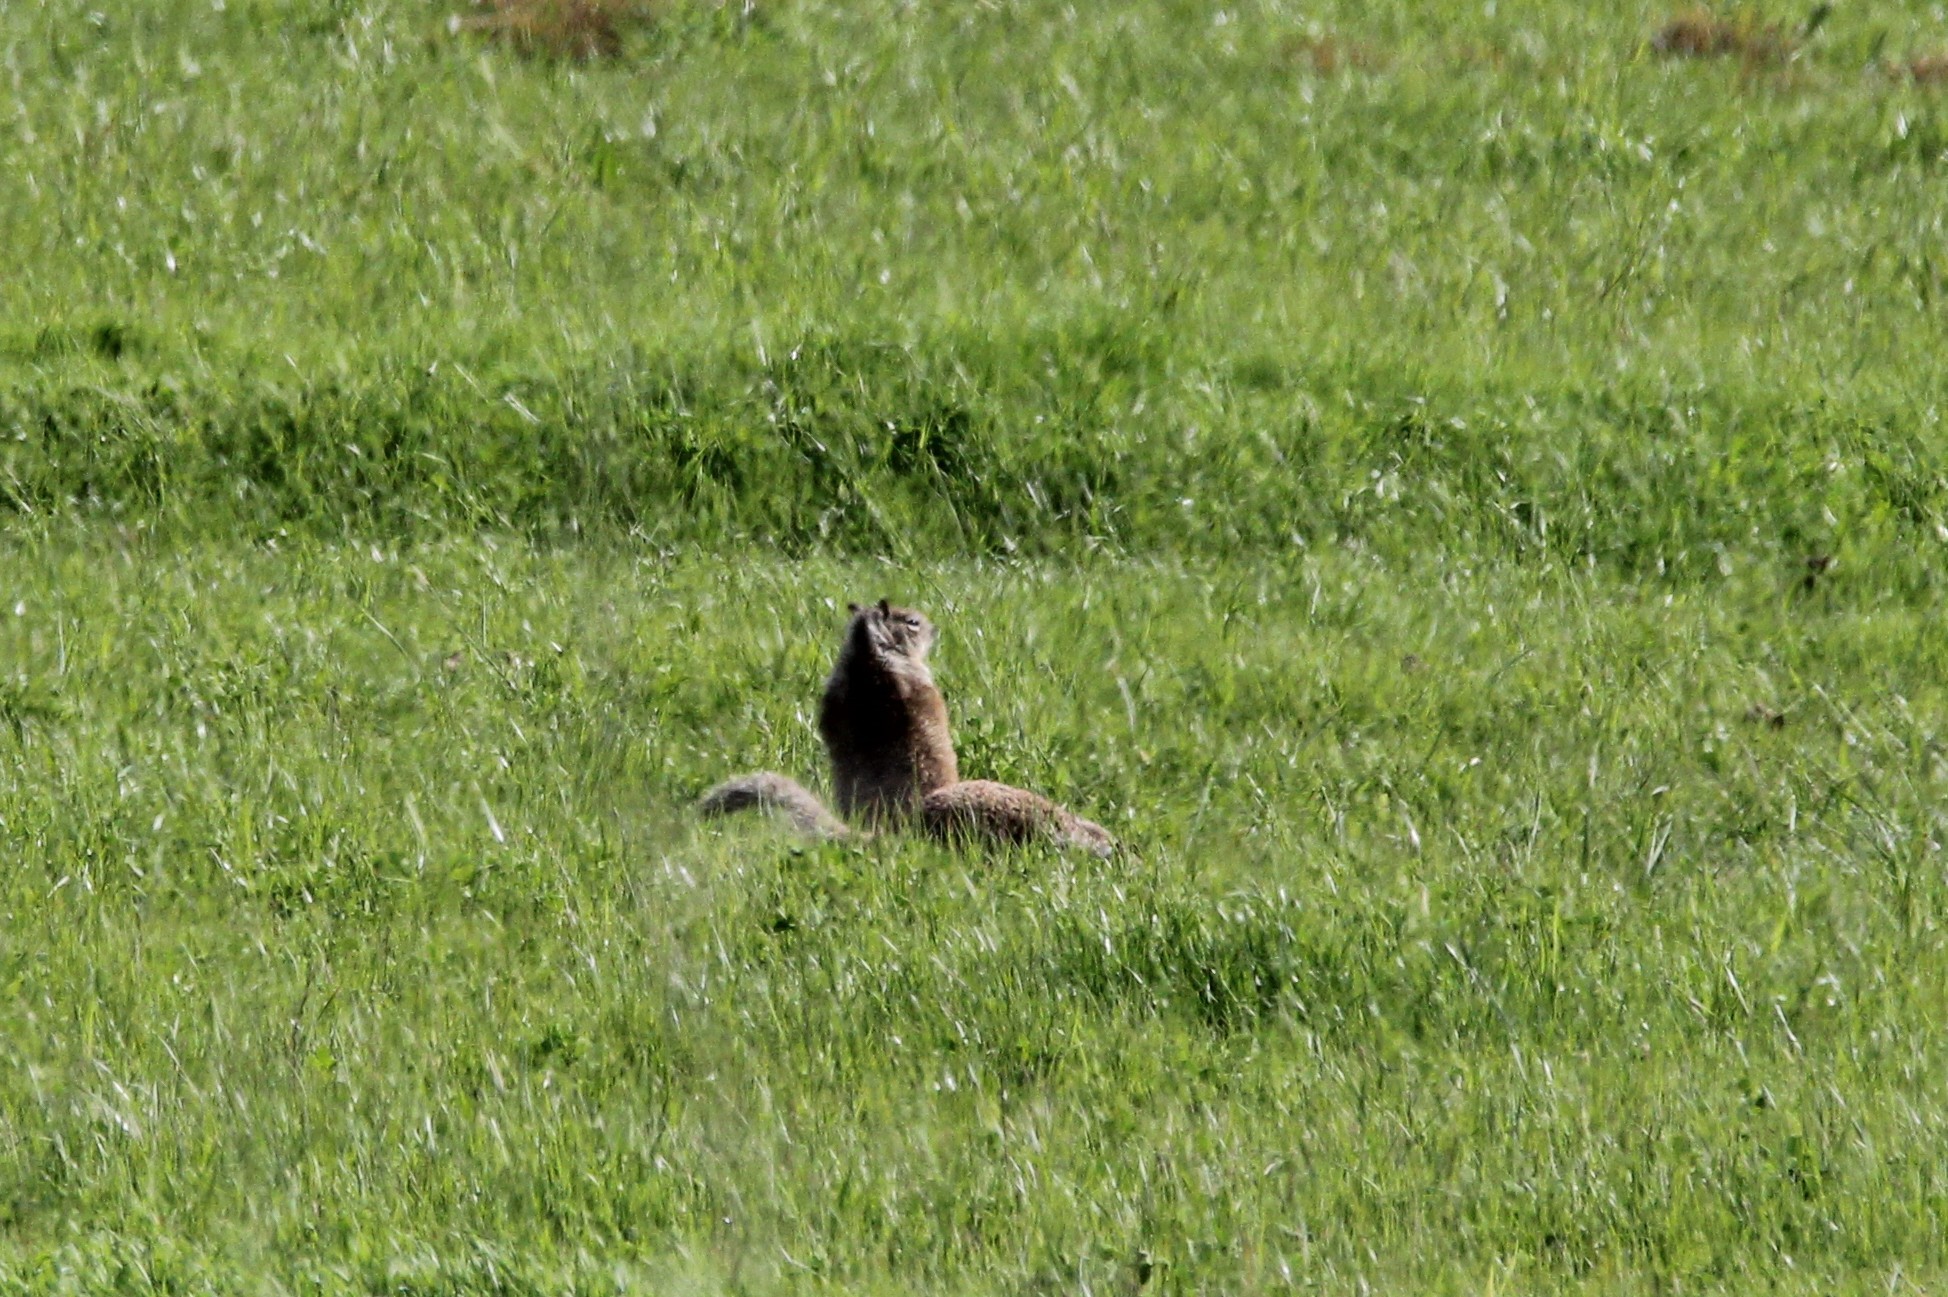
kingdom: Animalia
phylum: Chordata
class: Mammalia
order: Rodentia
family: Sciuridae
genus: Otospermophilus
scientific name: Otospermophilus beecheyi
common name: California ground squirrel
